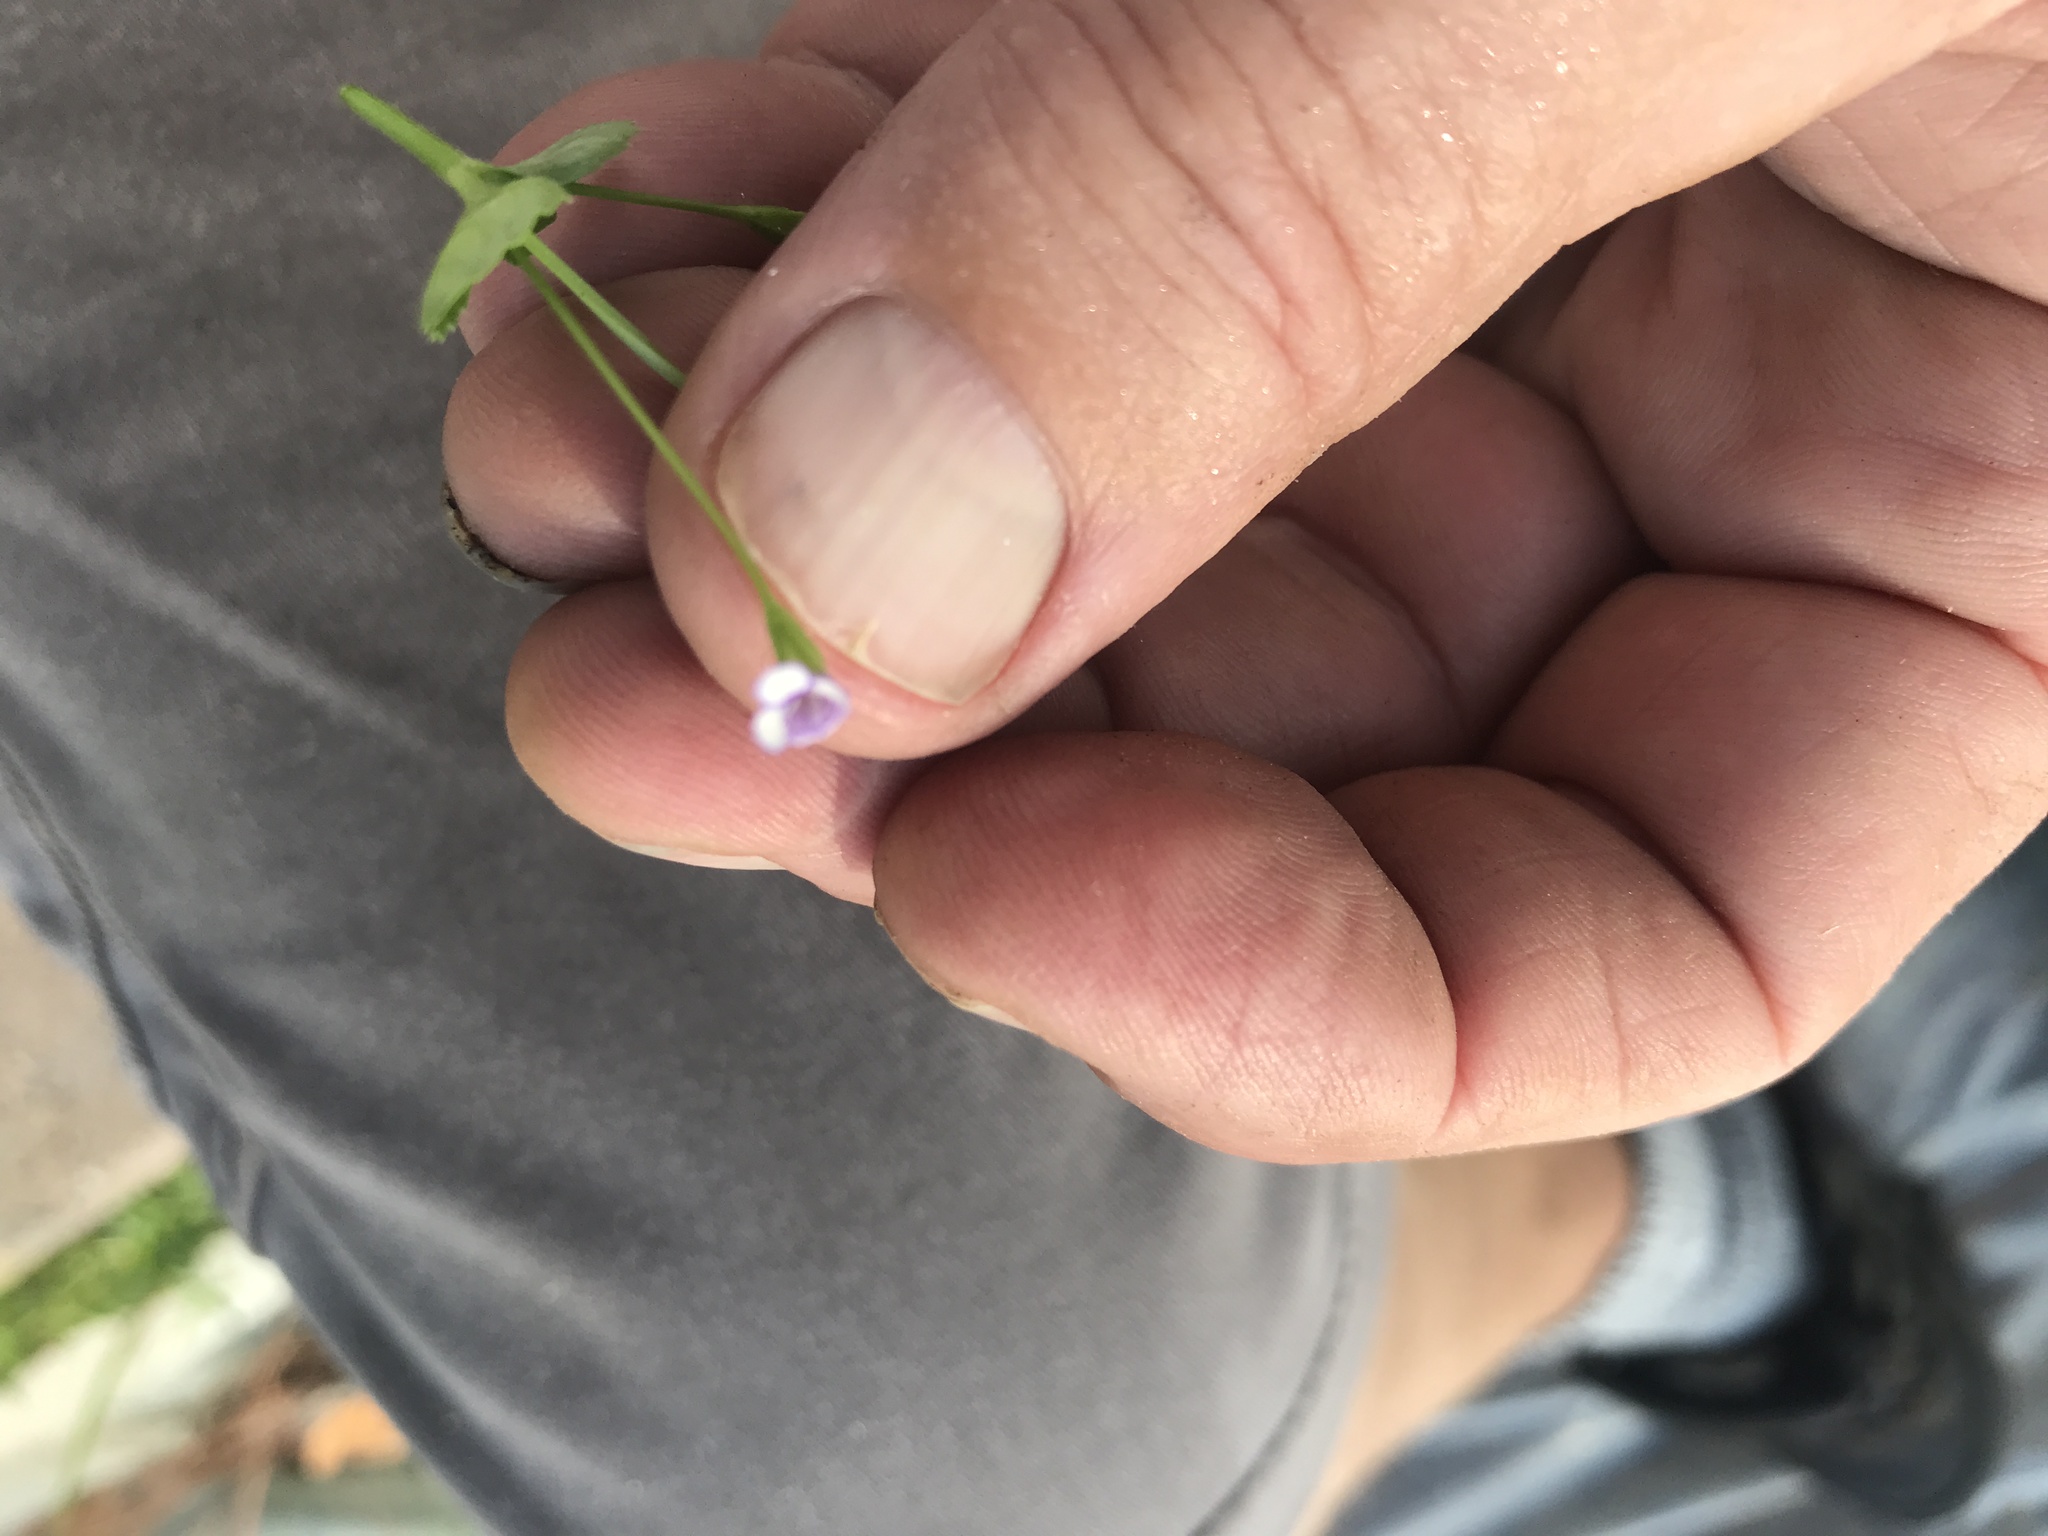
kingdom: Plantae
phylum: Tracheophyta
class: Magnoliopsida
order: Lamiales
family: Linderniaceae
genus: Torenia
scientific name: Torenia crustacea
